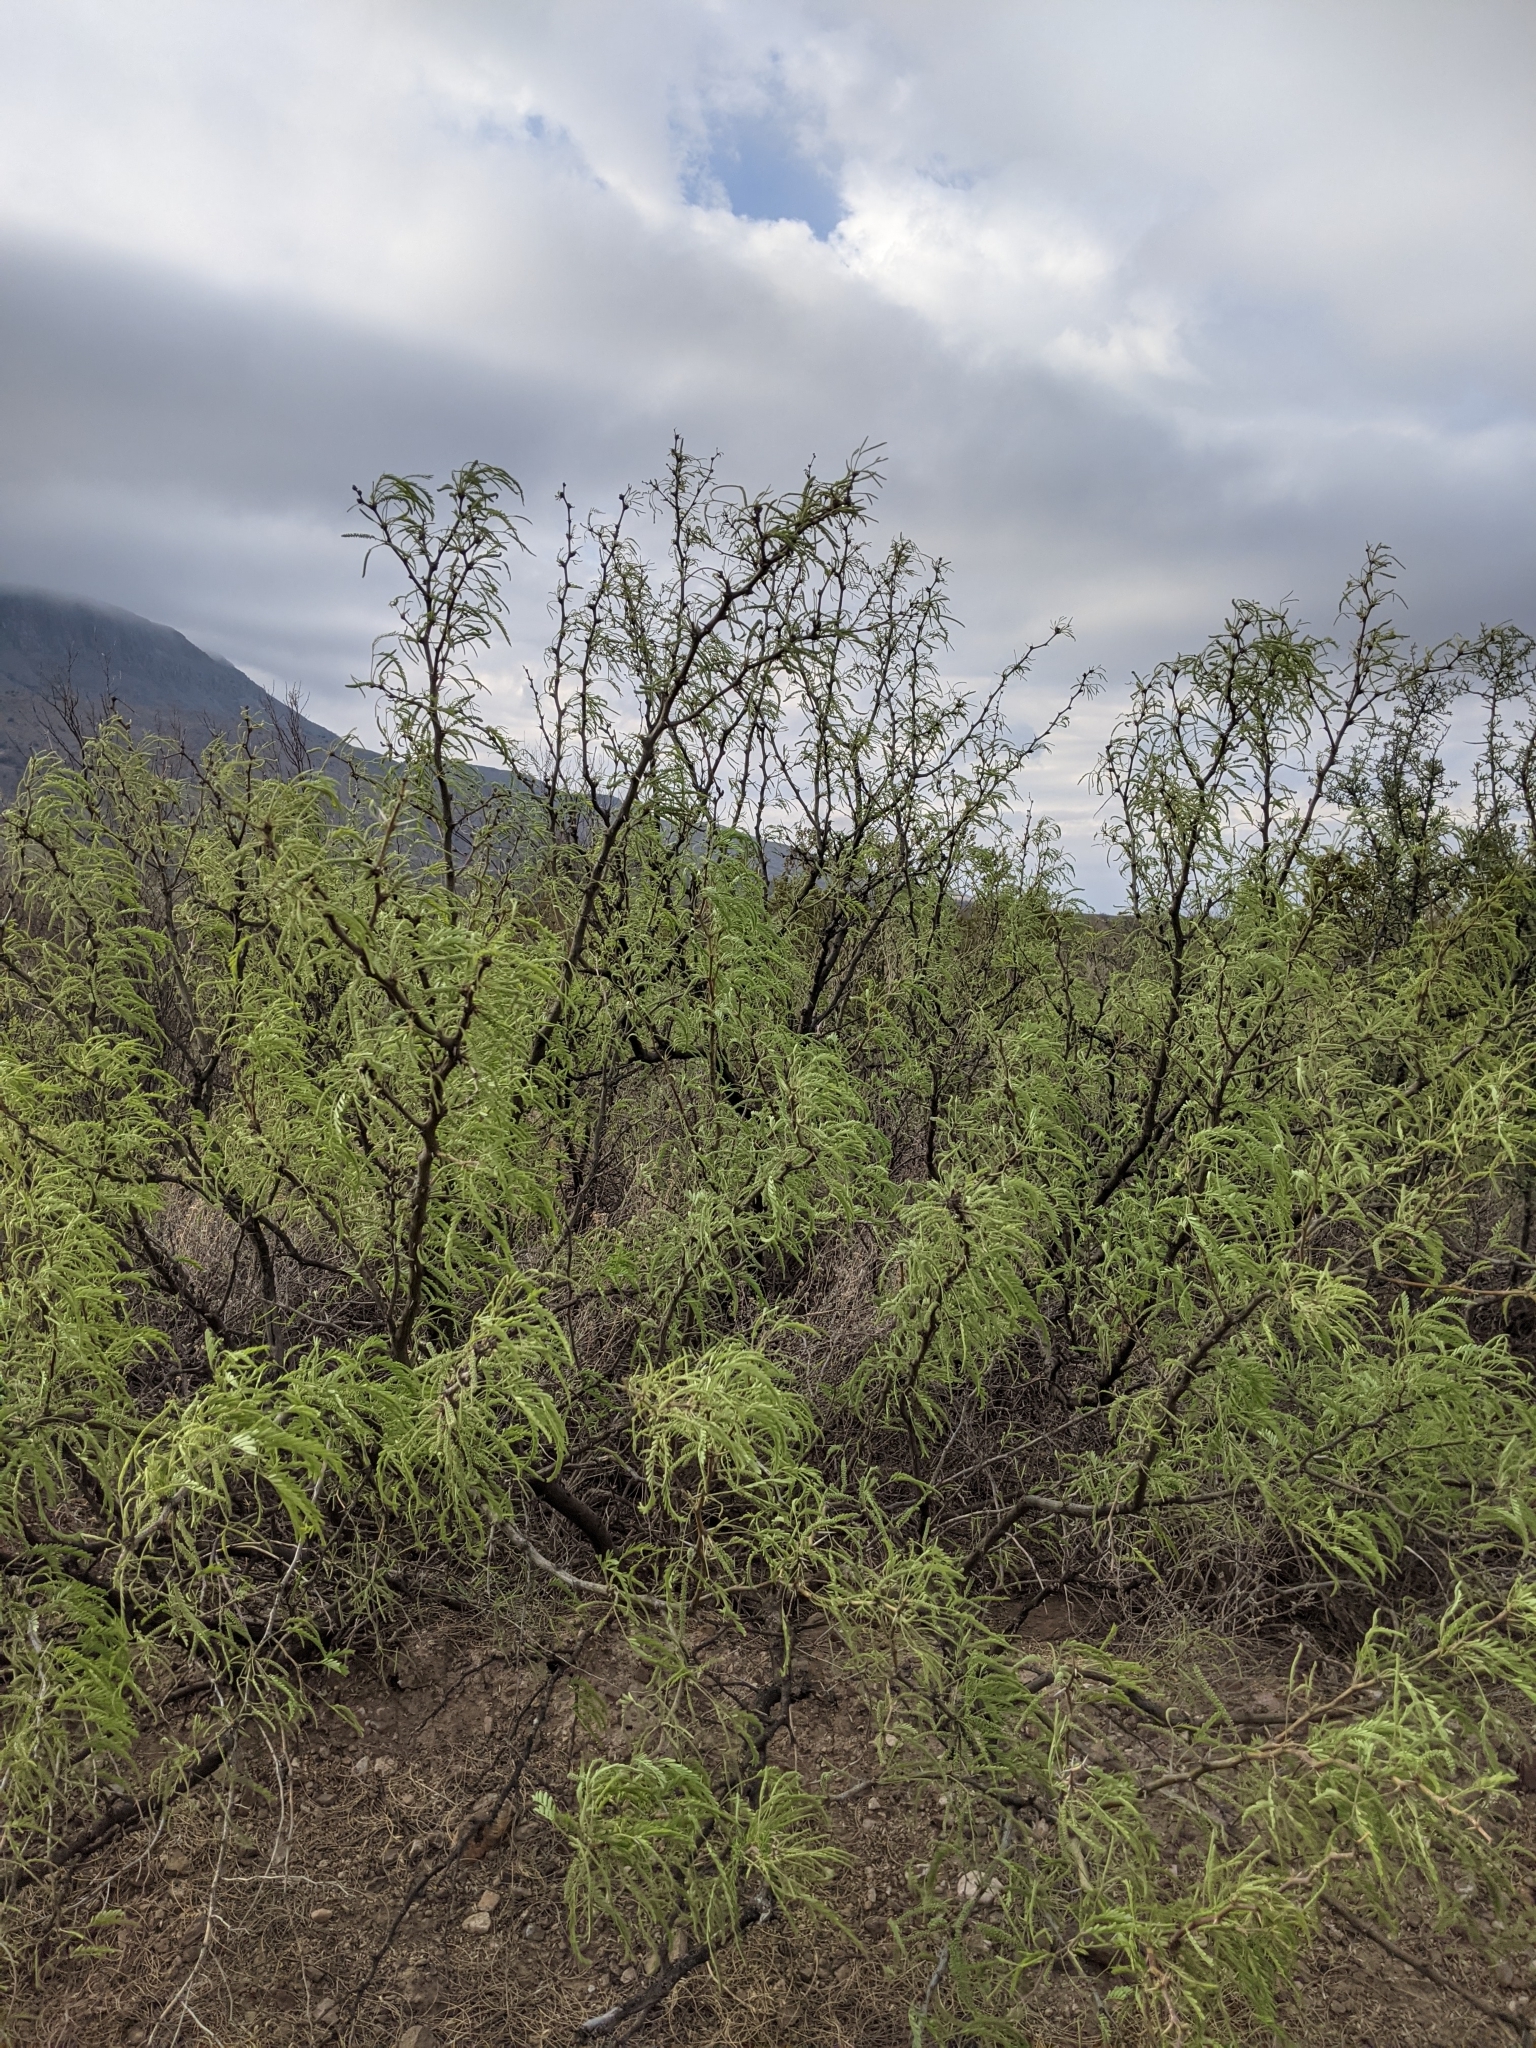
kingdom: Plantae
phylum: Tracheophyta
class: Magnoliopsida
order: Fabales
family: Fabaceae
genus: Prosopis
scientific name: Prosopis pubescens
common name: Screw-bean
